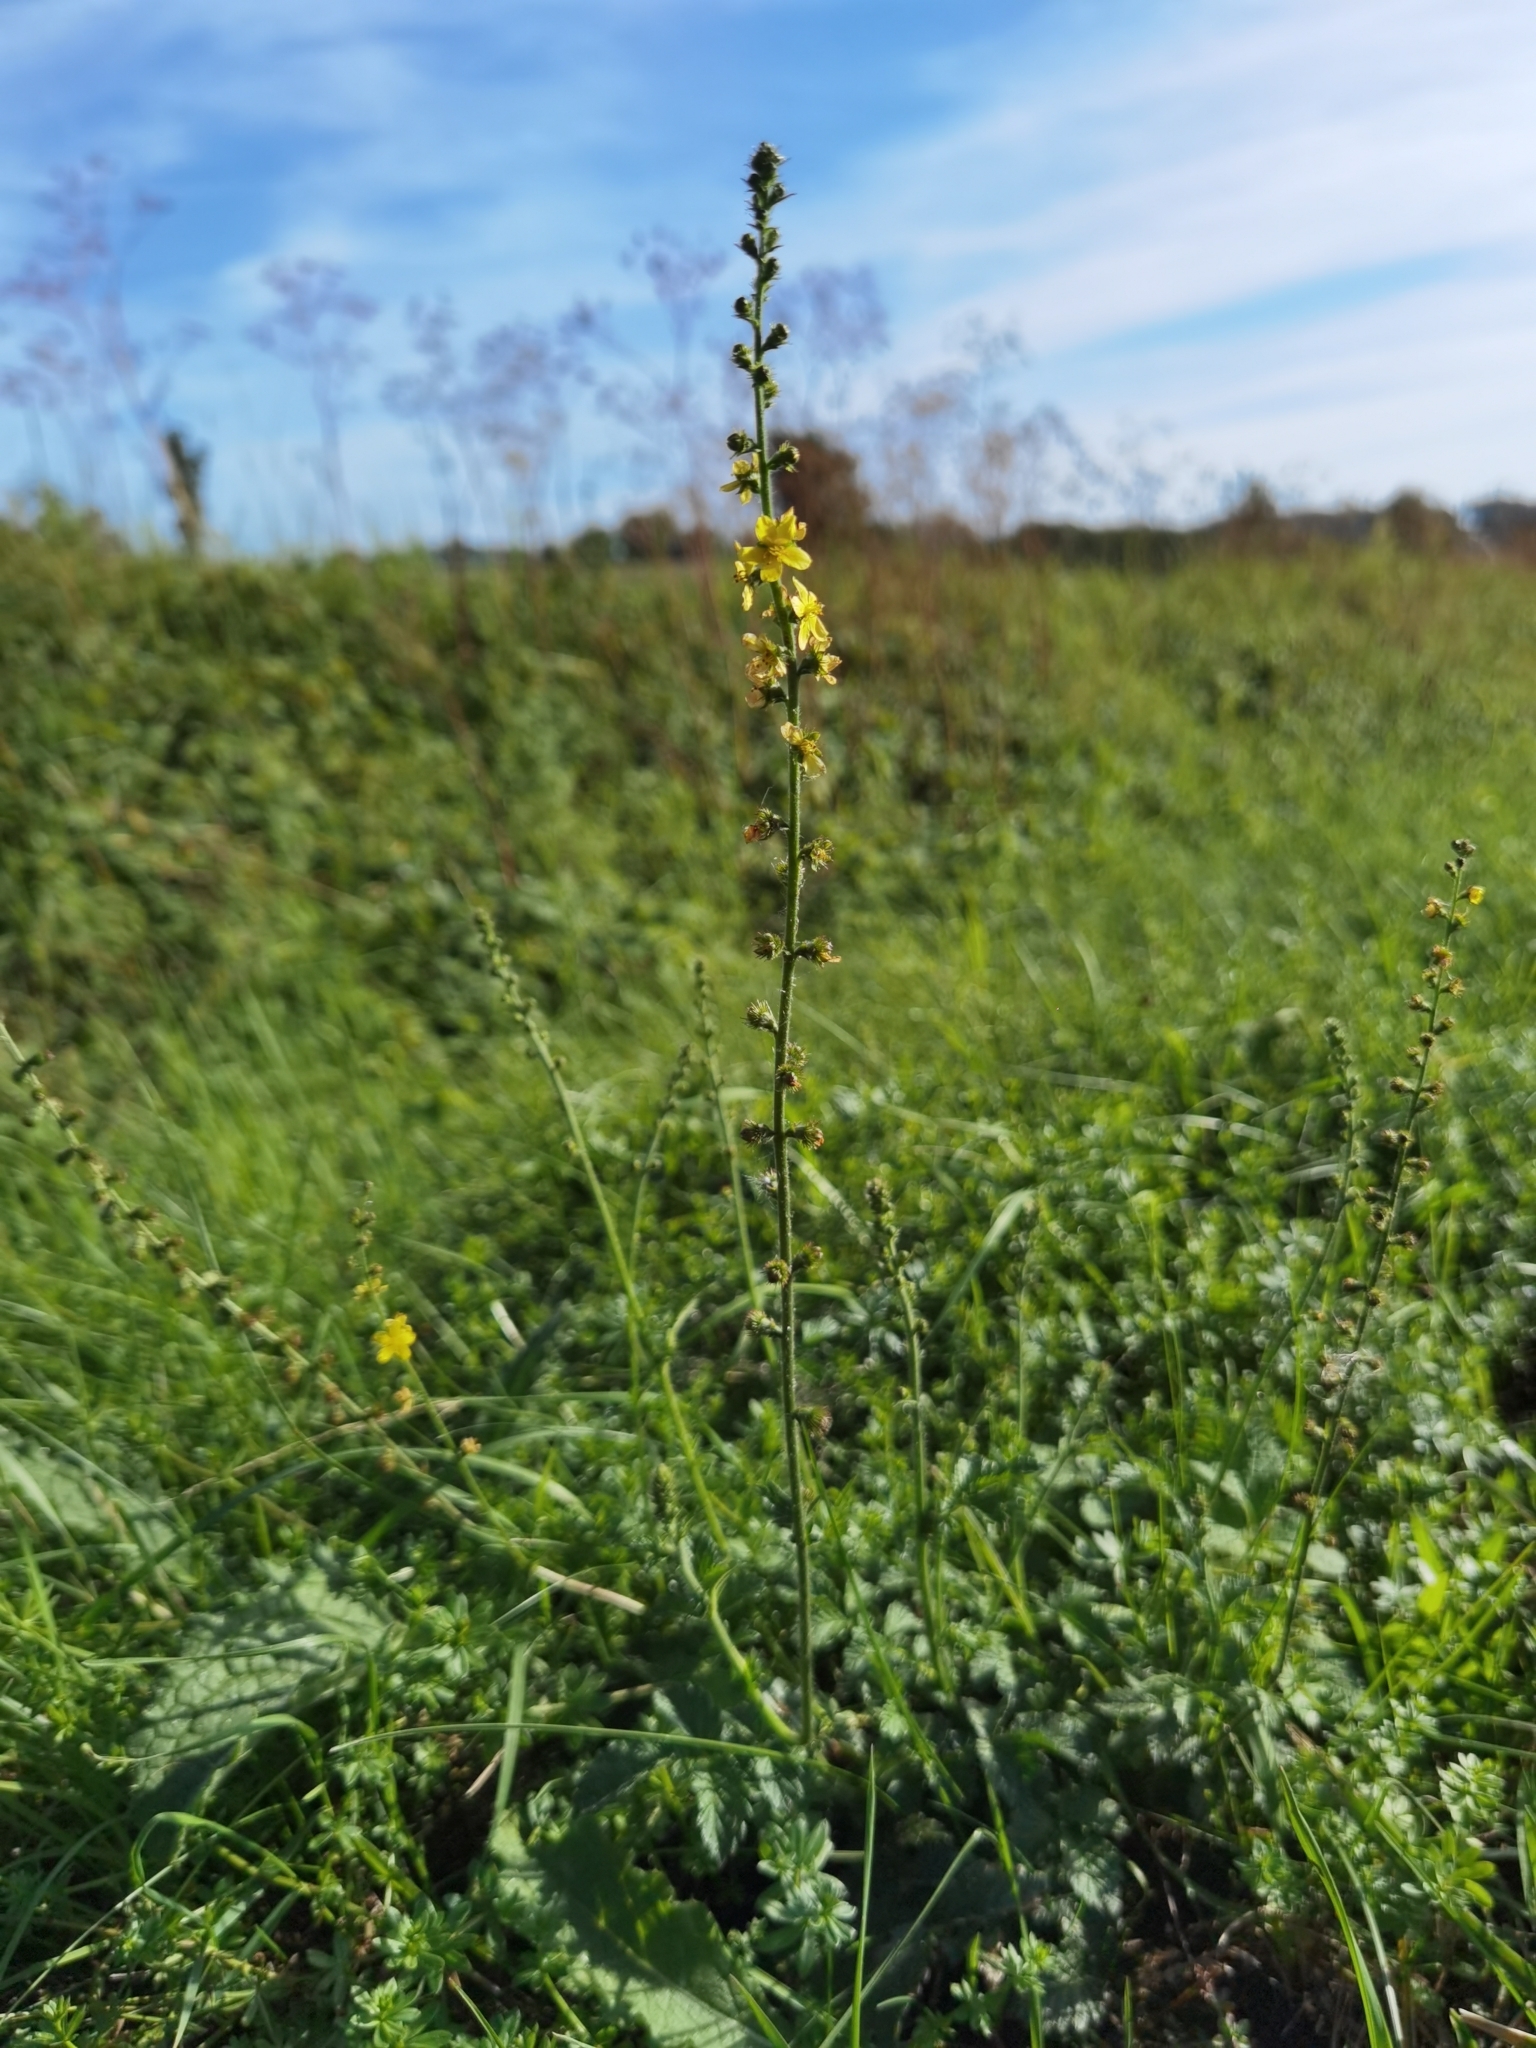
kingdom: Plantae
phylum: Tracheophyta
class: Magnoliopsida
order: Rosales
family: Rosaceae
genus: Agrimonia
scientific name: Agrimonia eupatoria
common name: Agrimony
